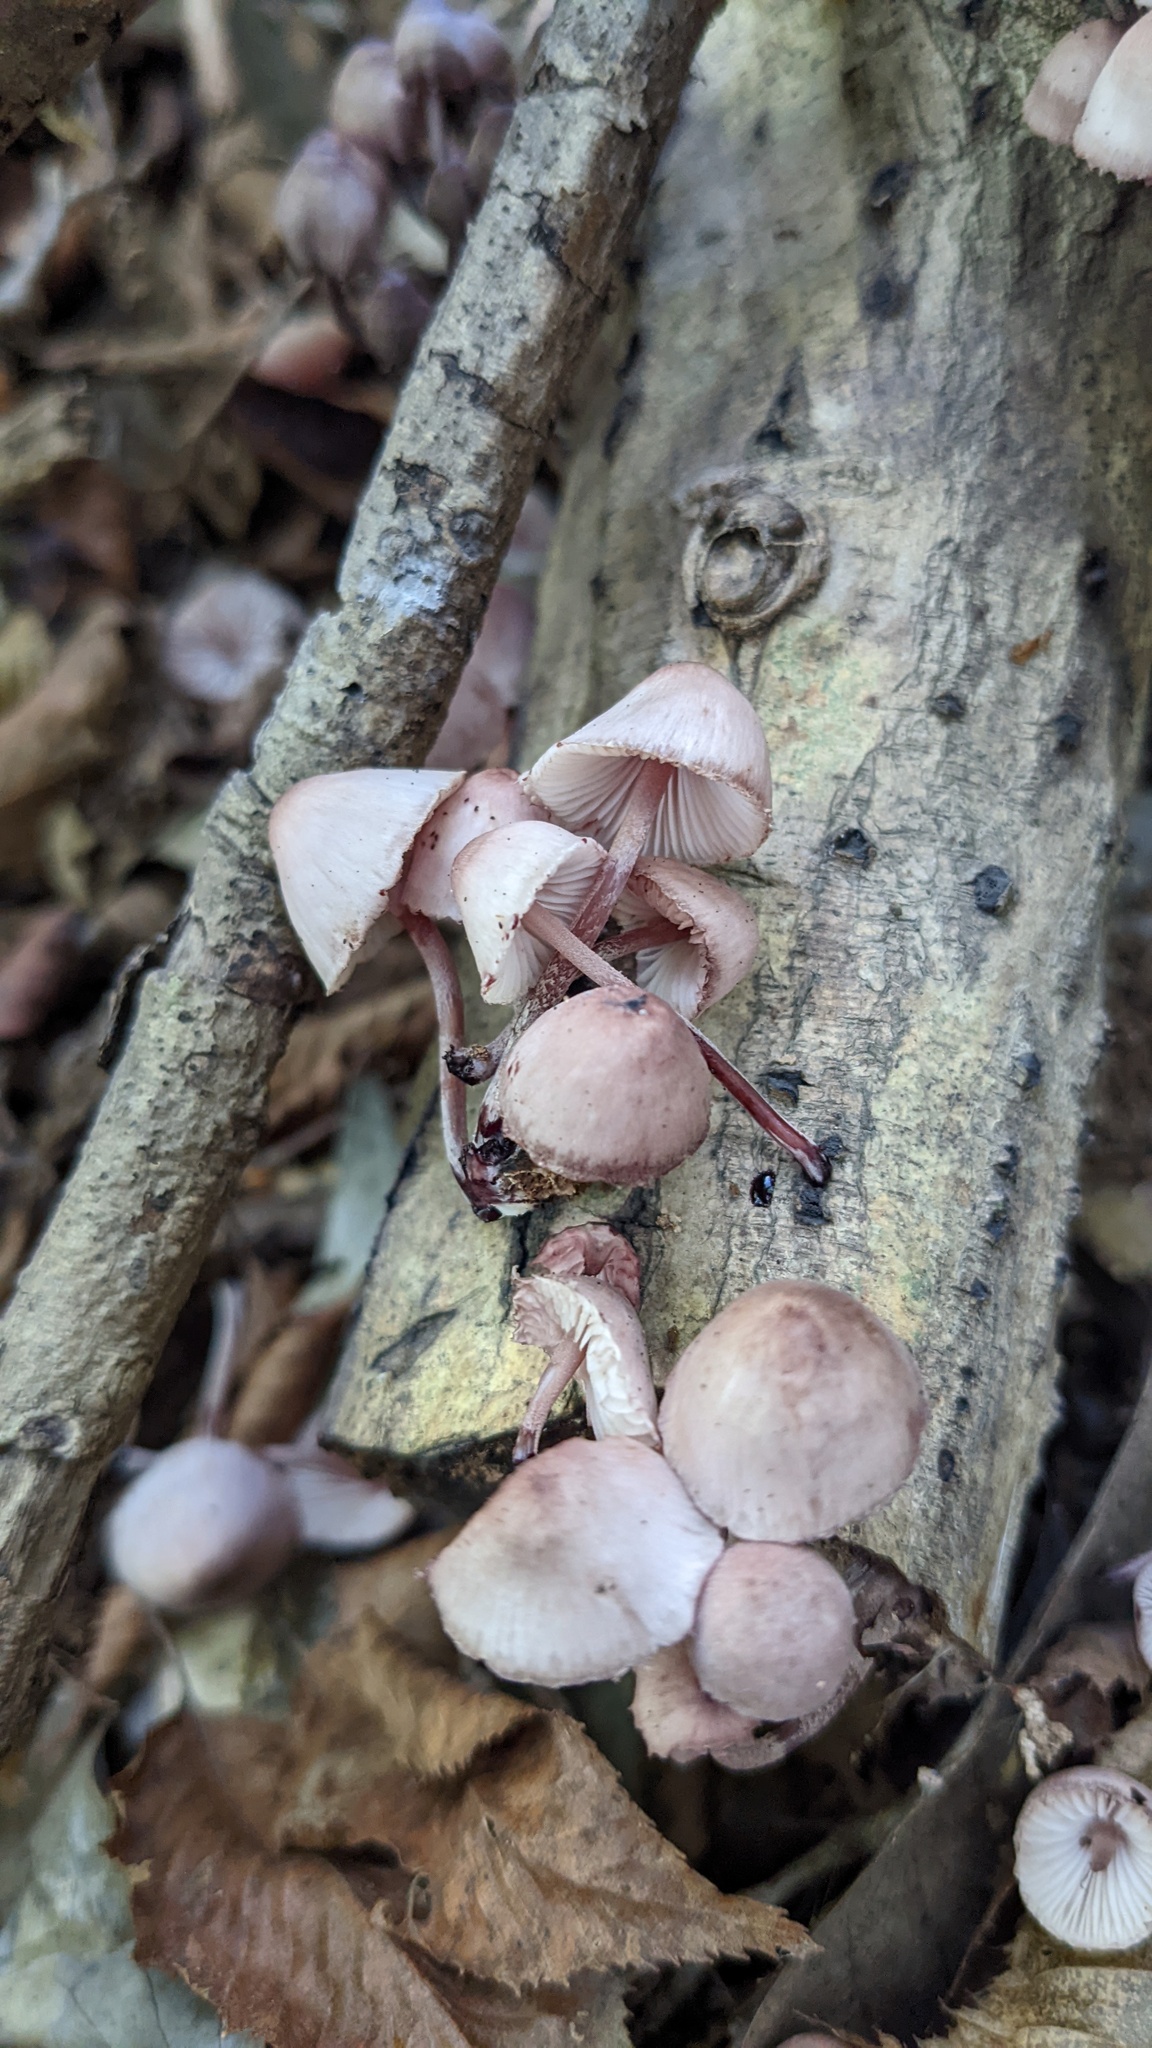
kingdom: Fungi
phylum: Basidiomycota
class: Agaricomycetes
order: Agaricales
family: Mycenaceae
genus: Mycena
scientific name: Mycena haematopus
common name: Burgundydrop bonnet
